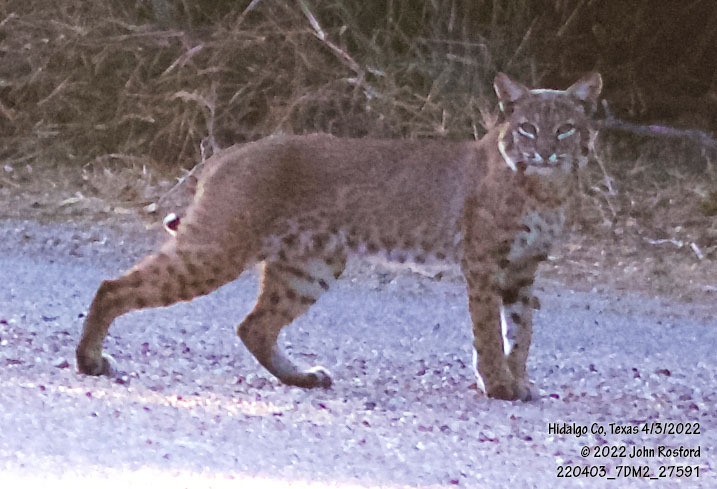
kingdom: Animalia
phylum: Chordata
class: Mammalia
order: Carnivora
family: Felidae
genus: Lynx
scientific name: Lynx rufus
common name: Bobcat
